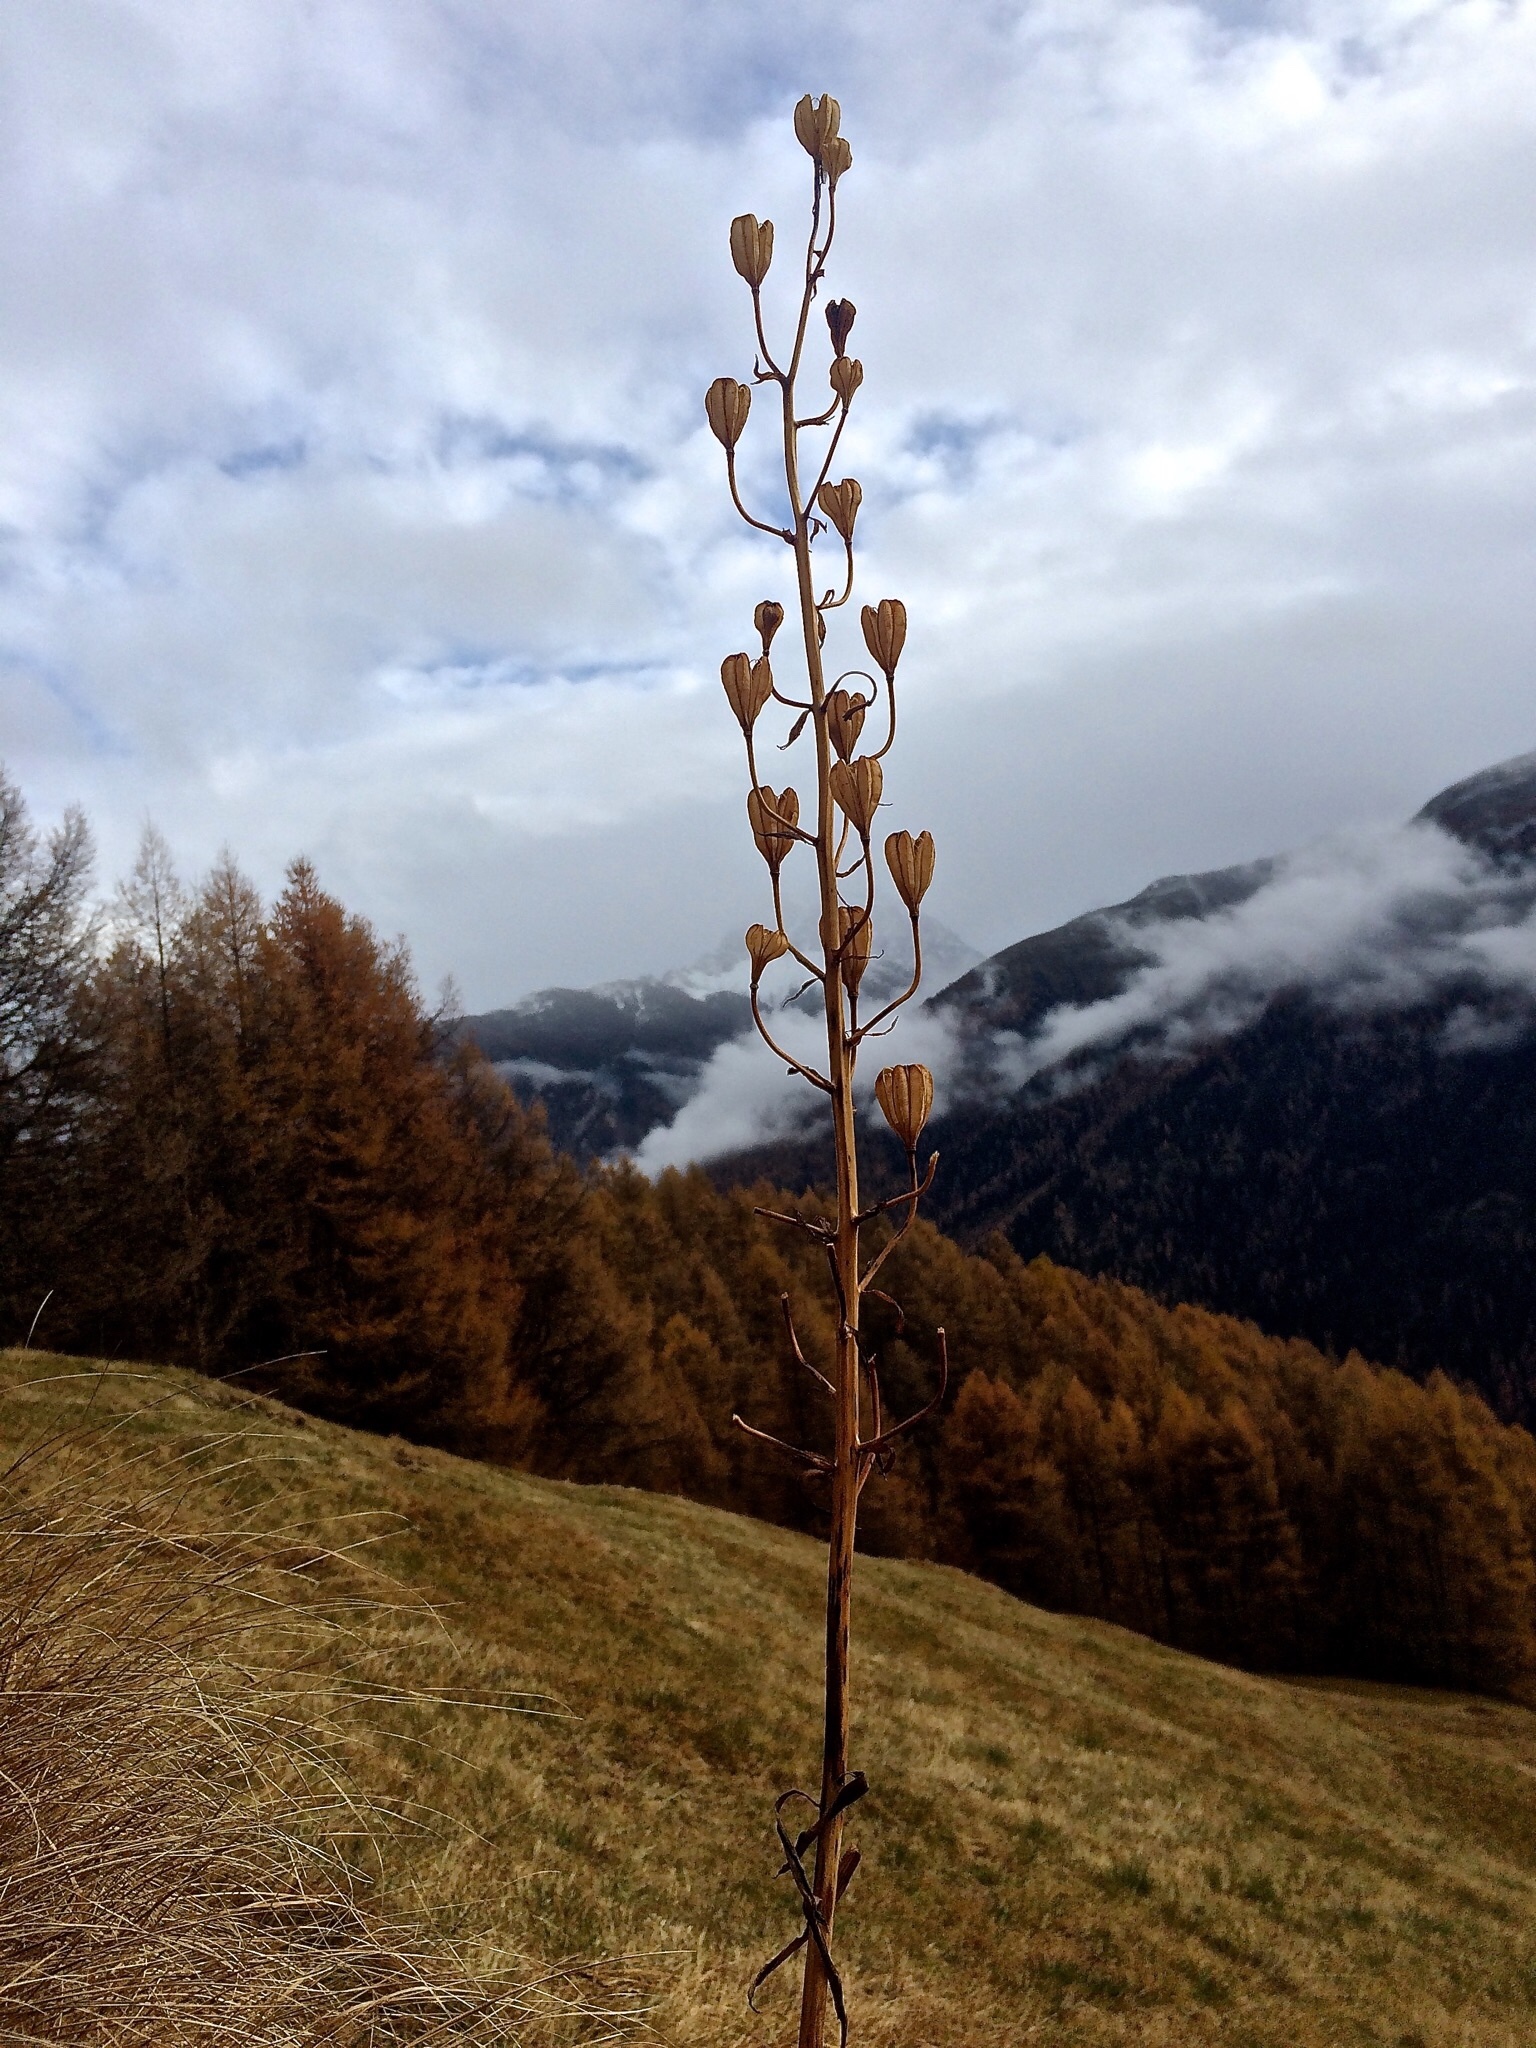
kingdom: Plantae
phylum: Tracheophyta
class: Liliopsida
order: Liliales
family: Liliaceae
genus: Lilium
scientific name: Lilium martagon
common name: Martagon lily
